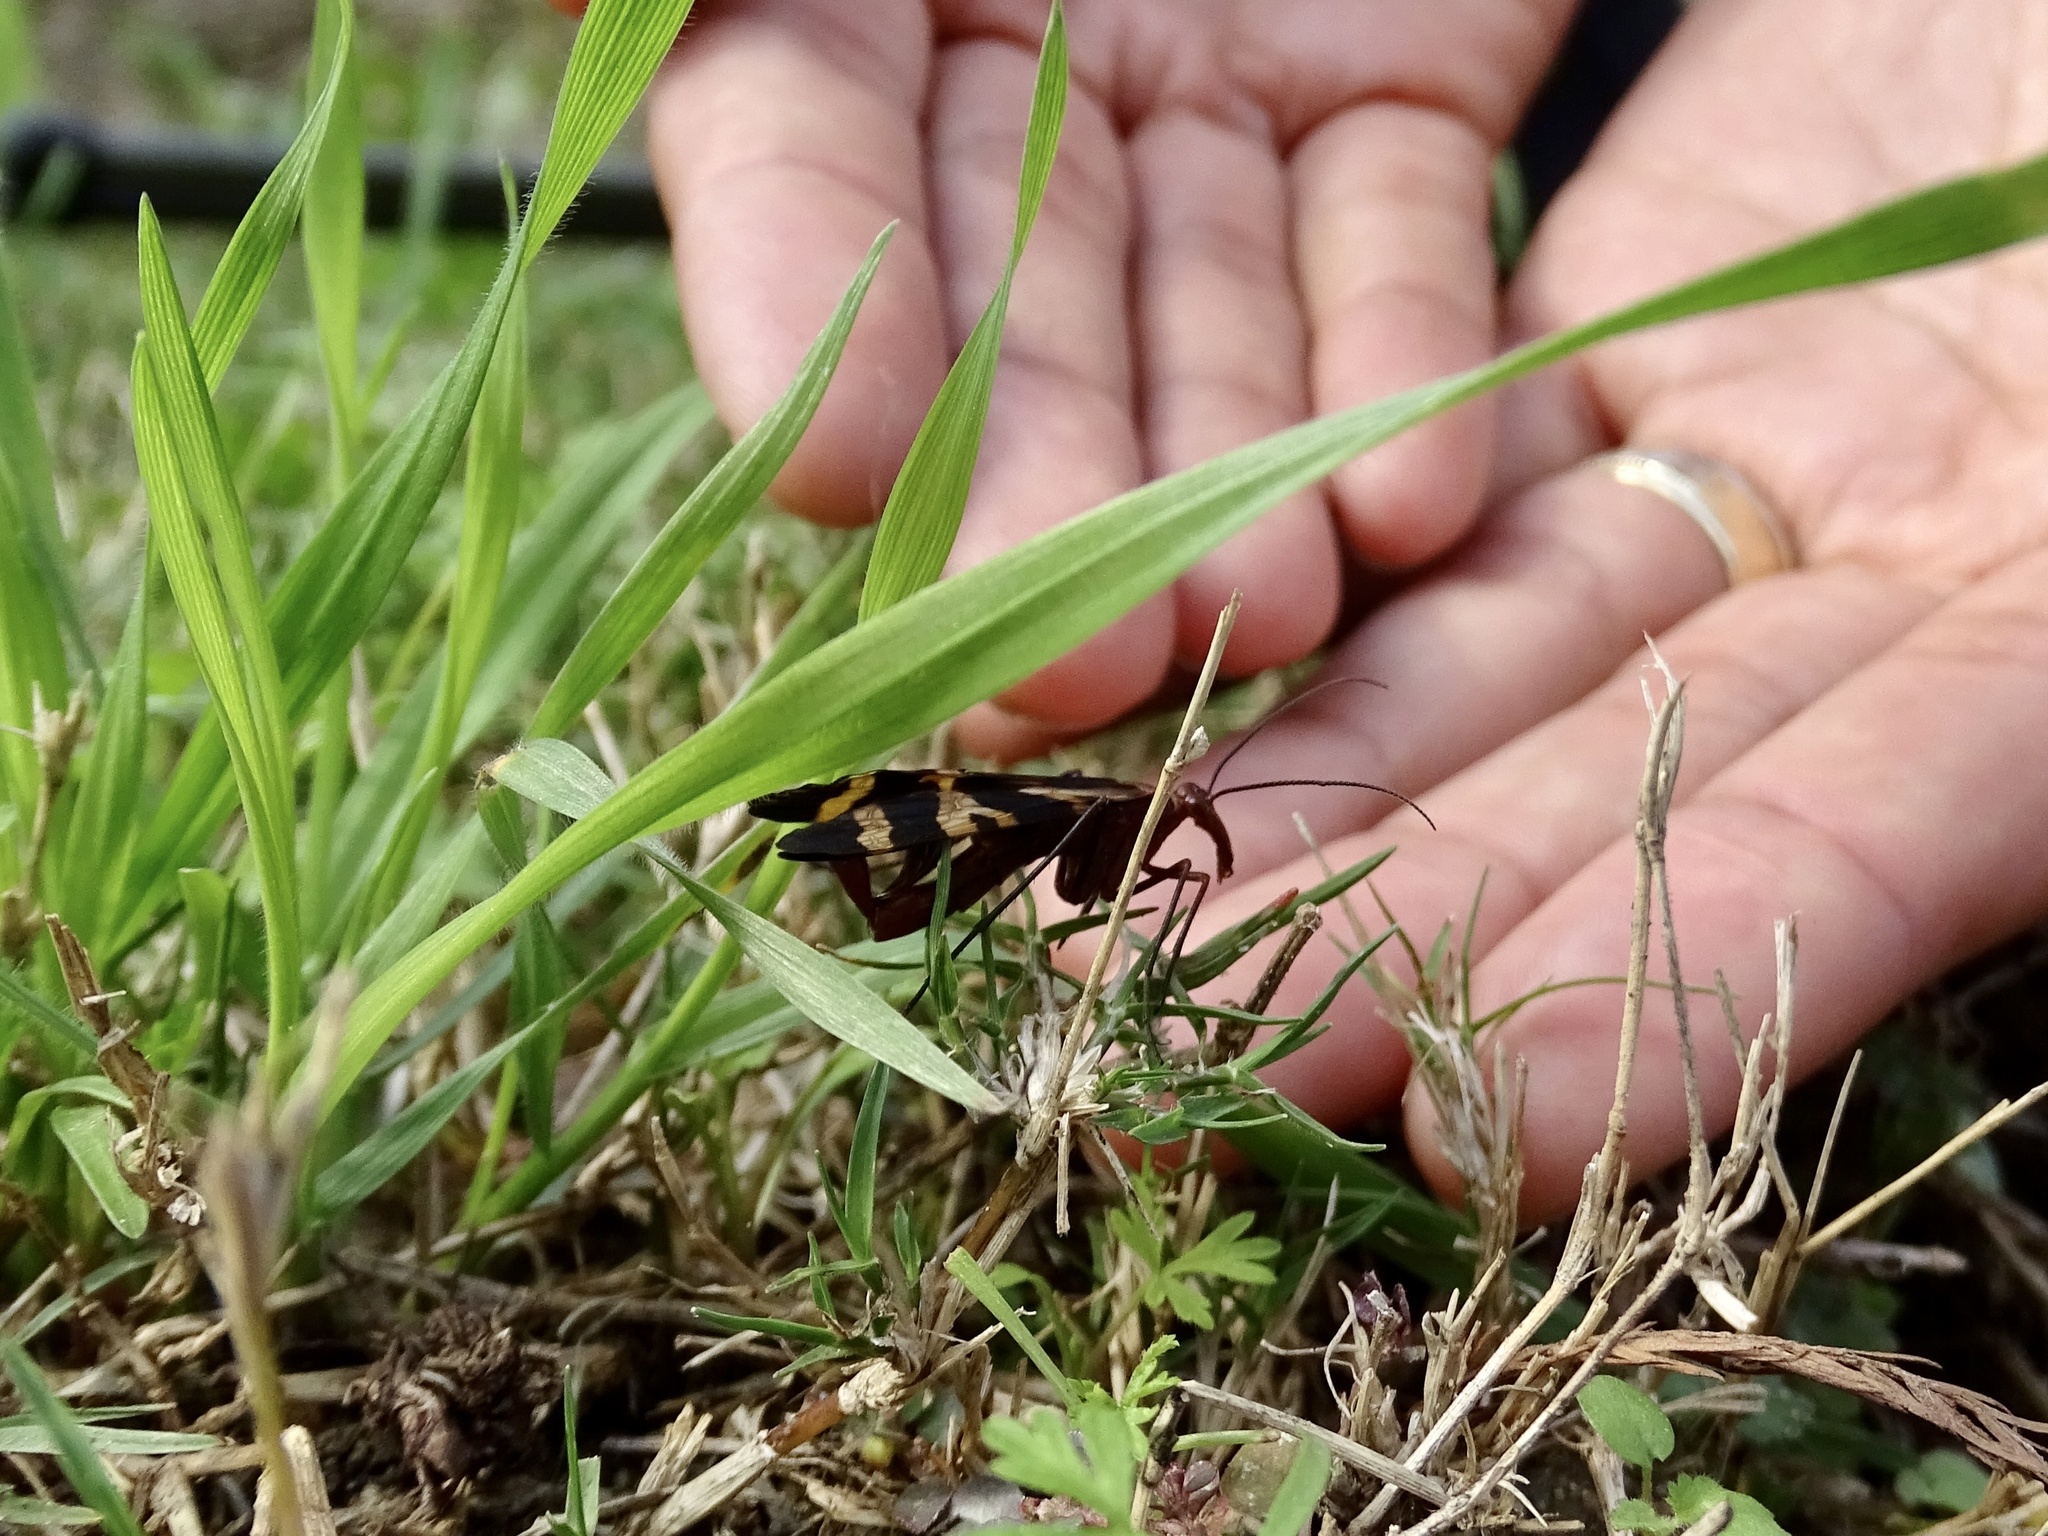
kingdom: Animalia
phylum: Arthropoda
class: Insecta
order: Mecoptera
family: Panorpidae
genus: Panorpa
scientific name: Panorpa nuptialis
